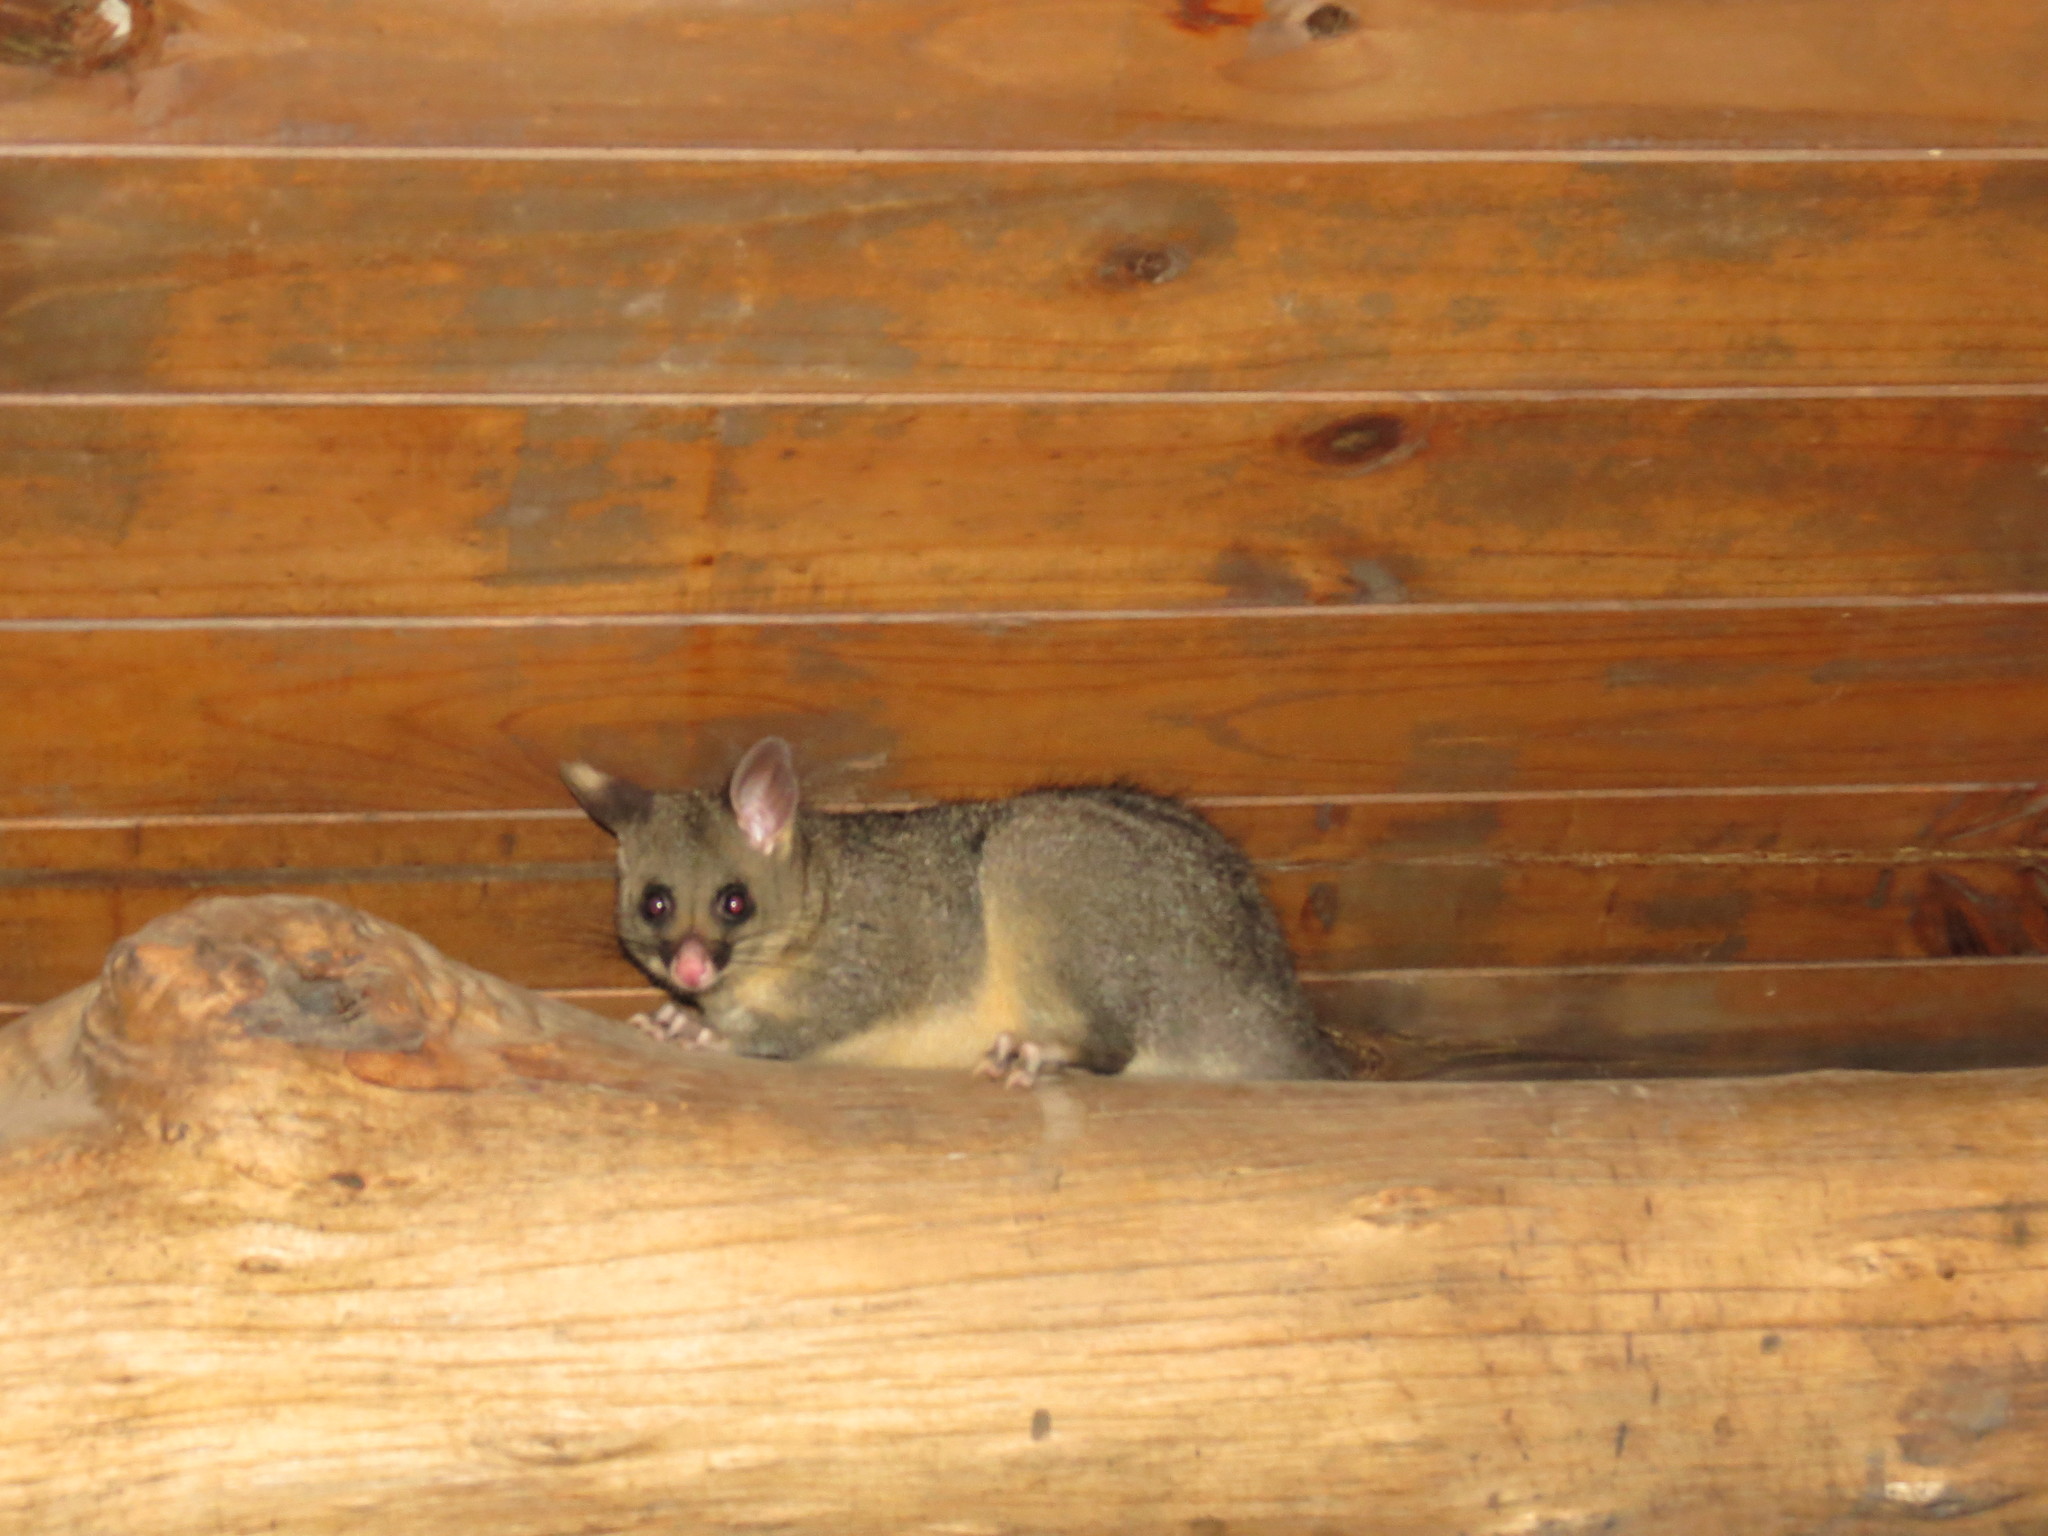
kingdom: Animalia
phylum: Chordata
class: Mammalia
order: Diprotodontia
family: Phalangeridae
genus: Trichosurus
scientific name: Trichosurus vulpecula
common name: Common brushtail
